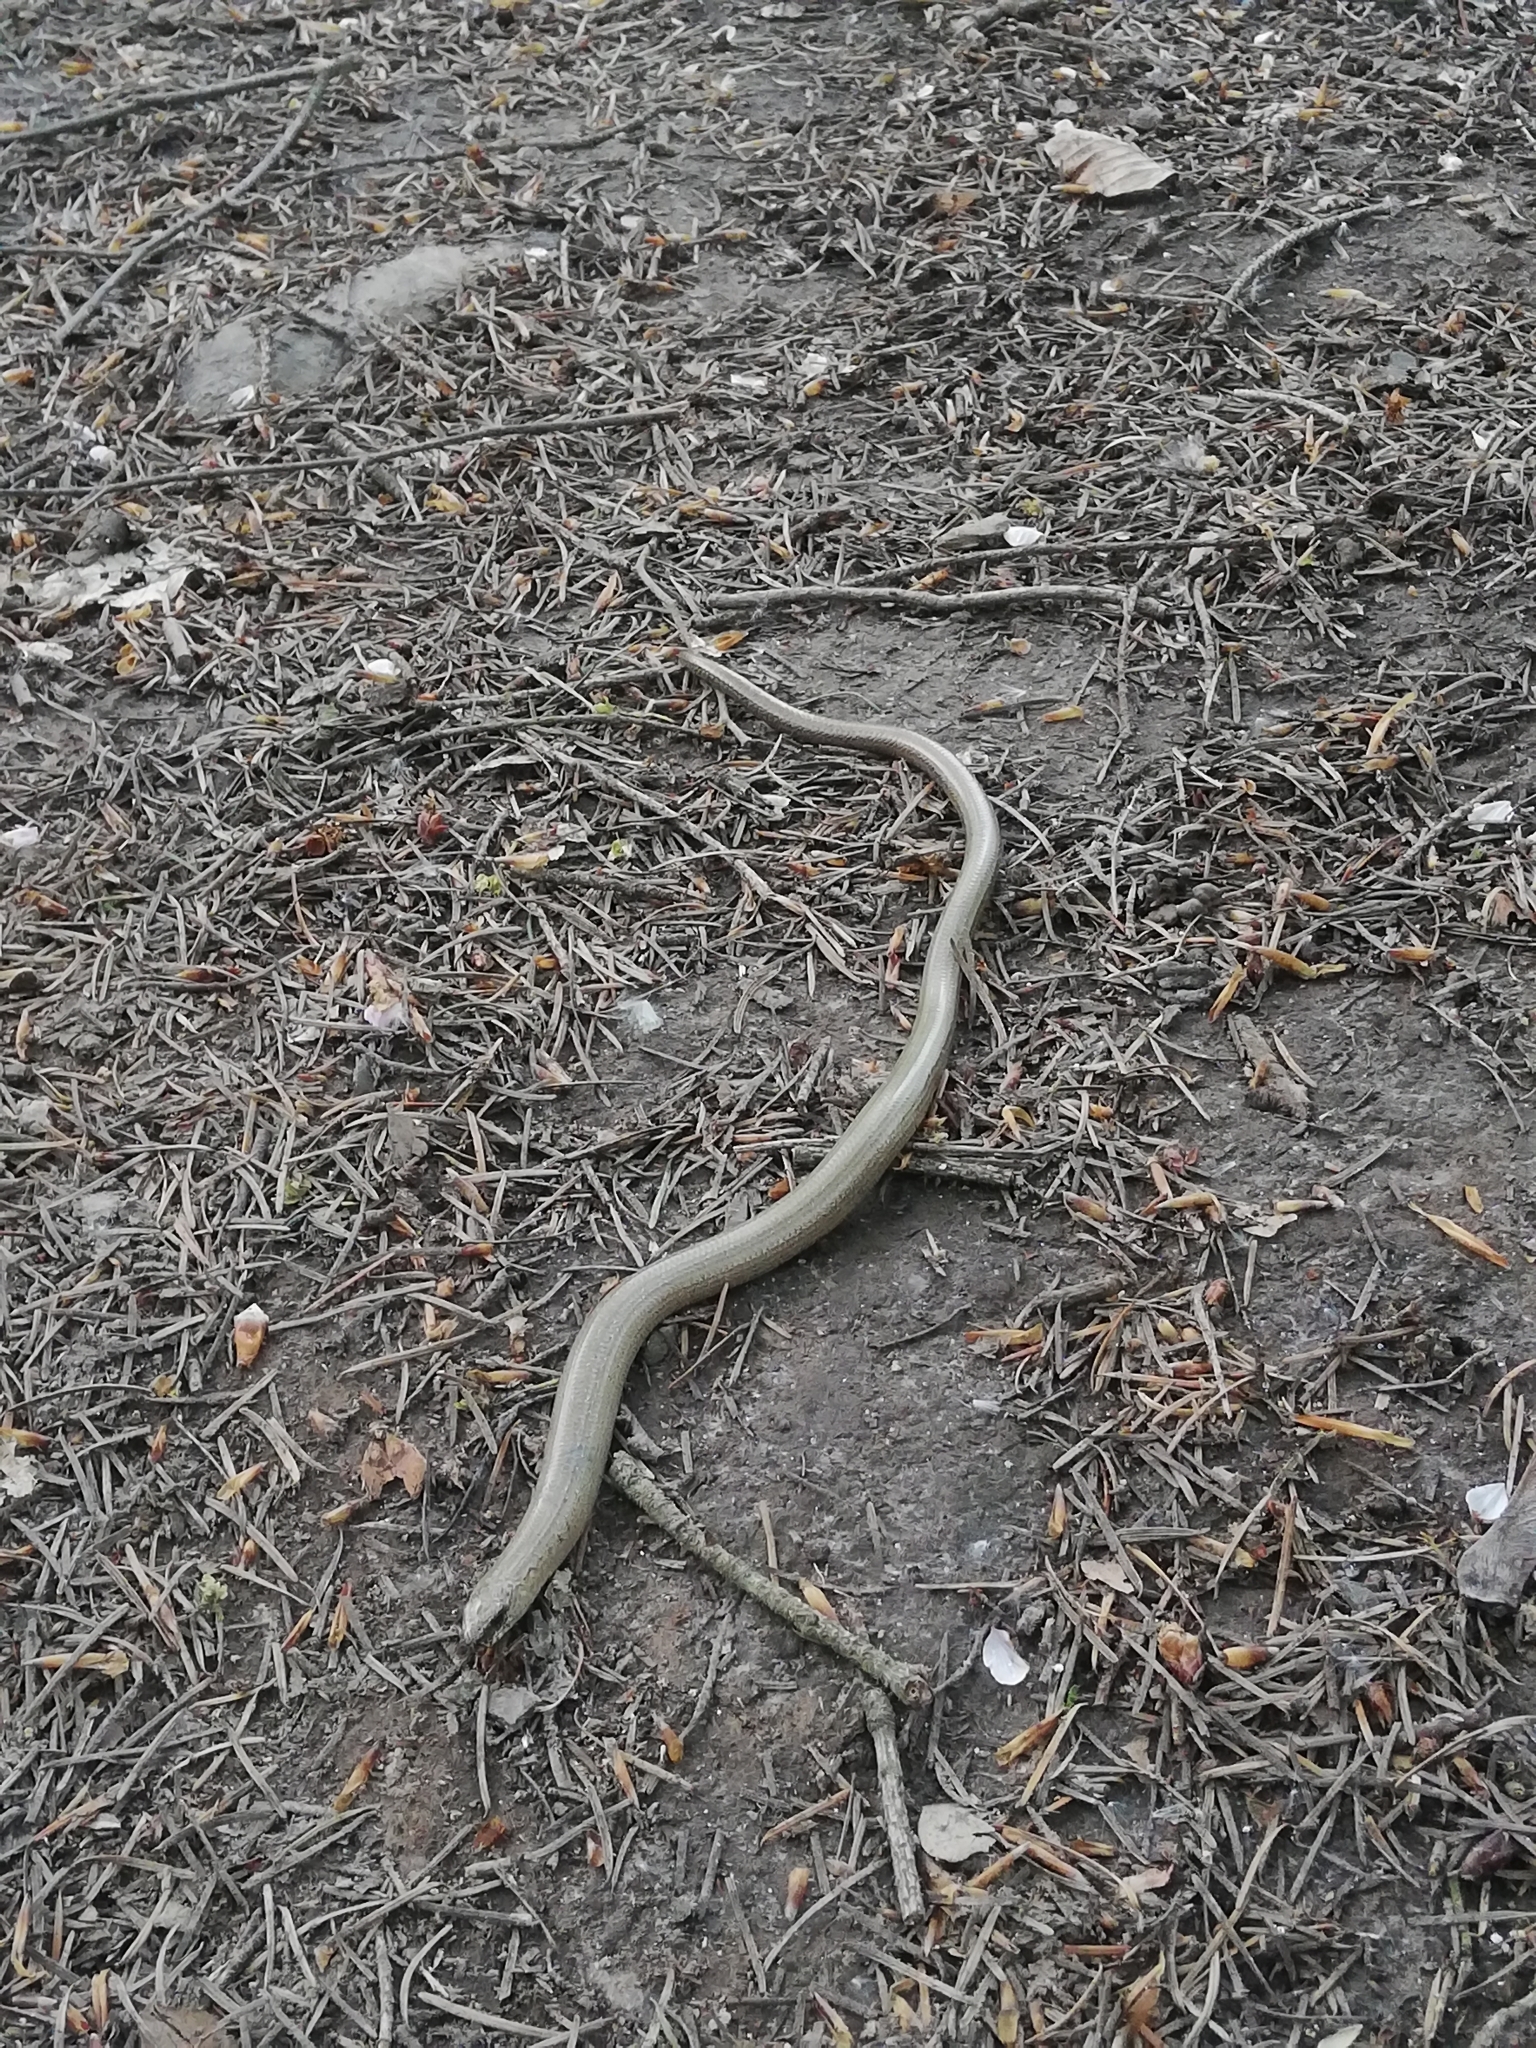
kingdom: Animalia
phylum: Chordata
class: Squamata
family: Anguidae
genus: Anguis
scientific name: Anguis fragilis
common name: Slow worm
